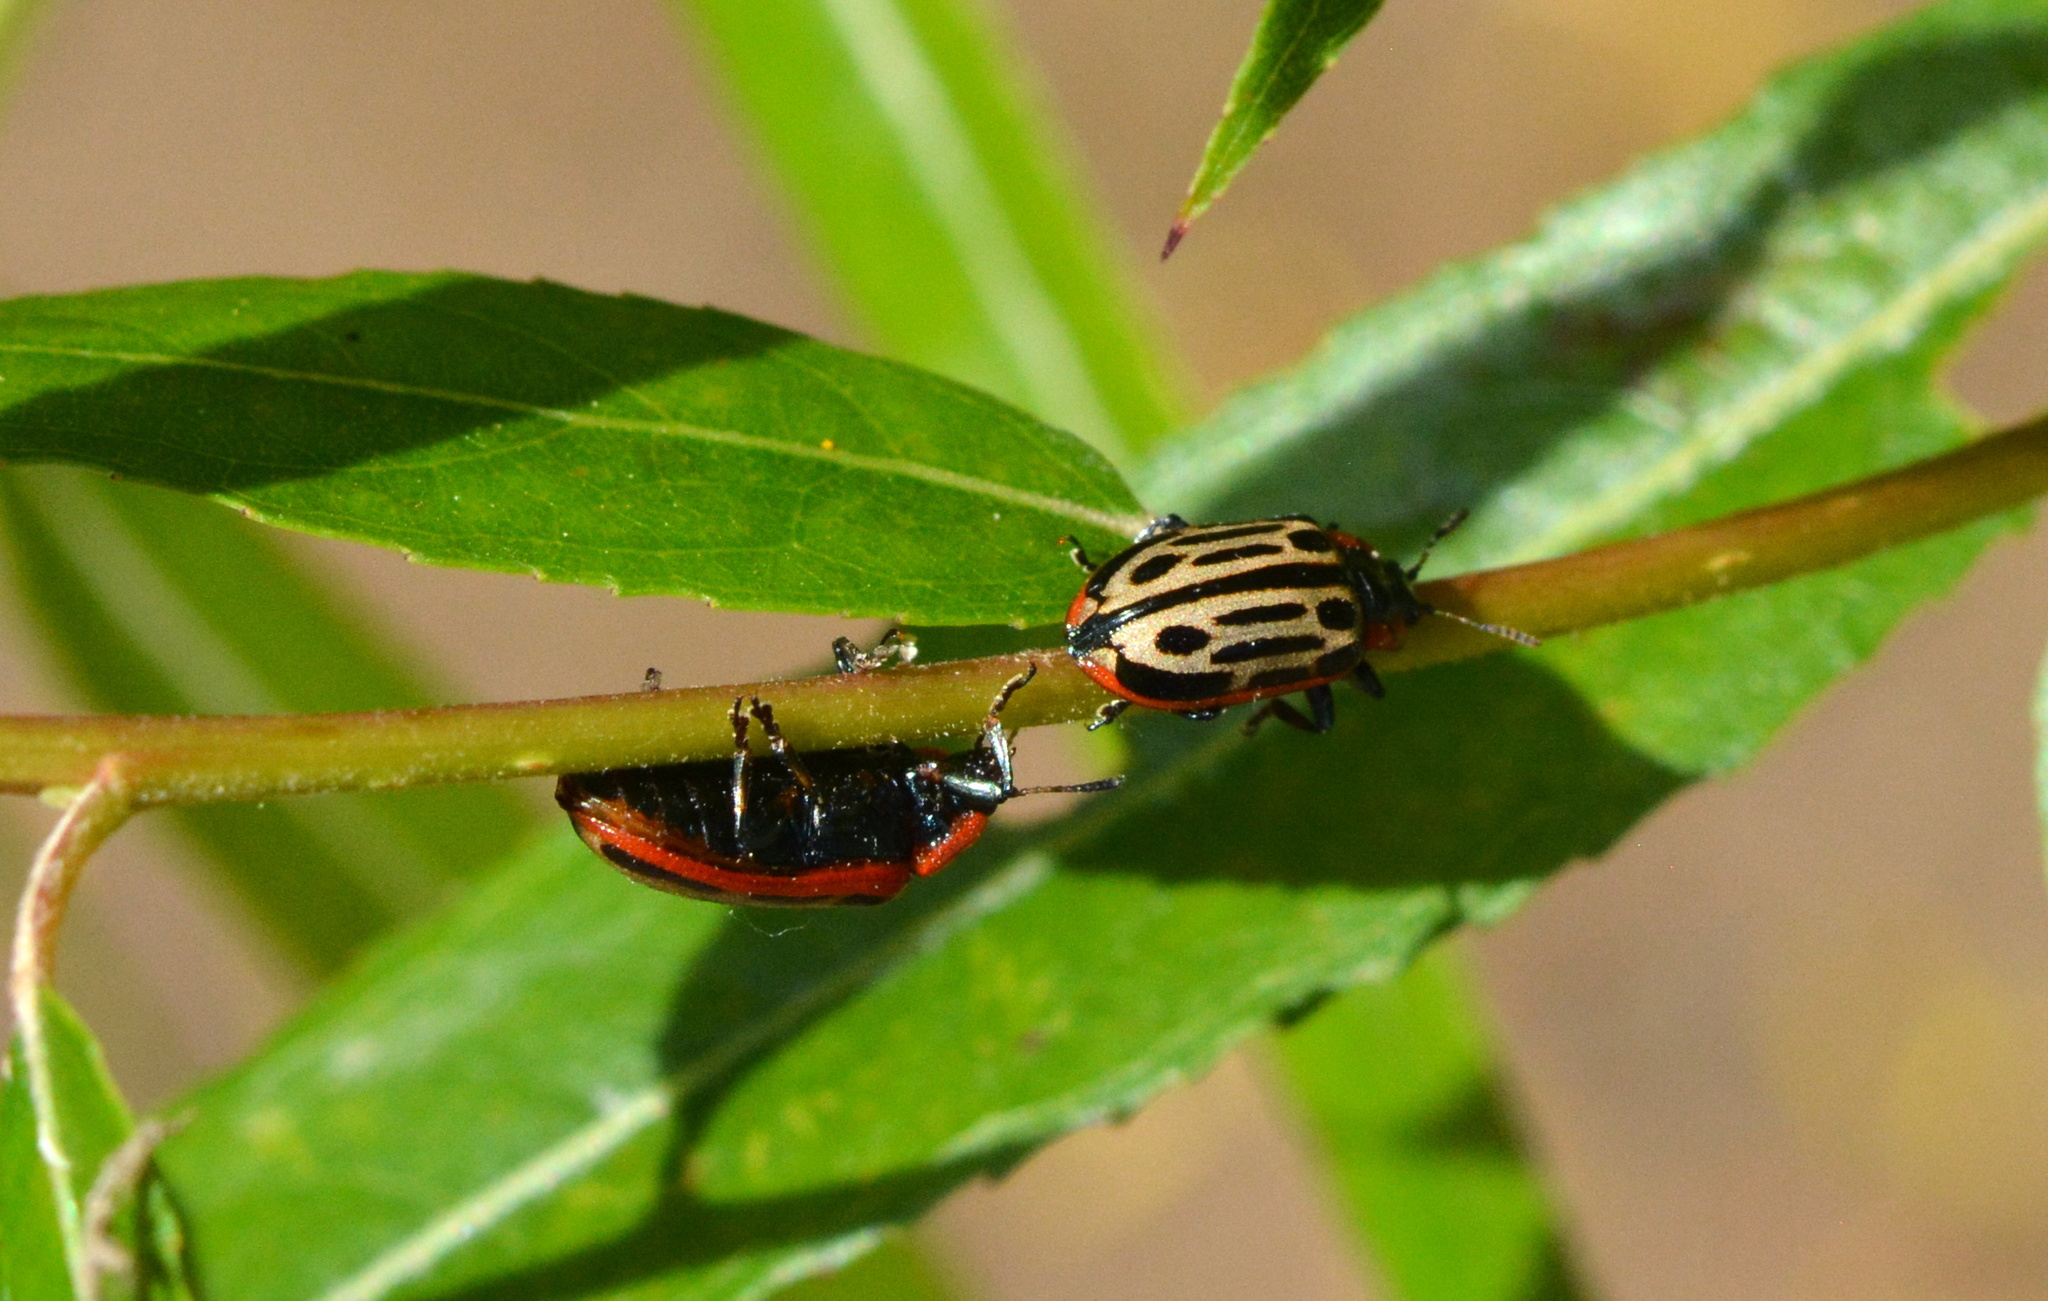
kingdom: Animalia
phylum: Arthropoda
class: Insecta
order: Coleoptera
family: Chrysomelidae
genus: Aethiopocassis
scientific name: Aethiopocassis scripta
